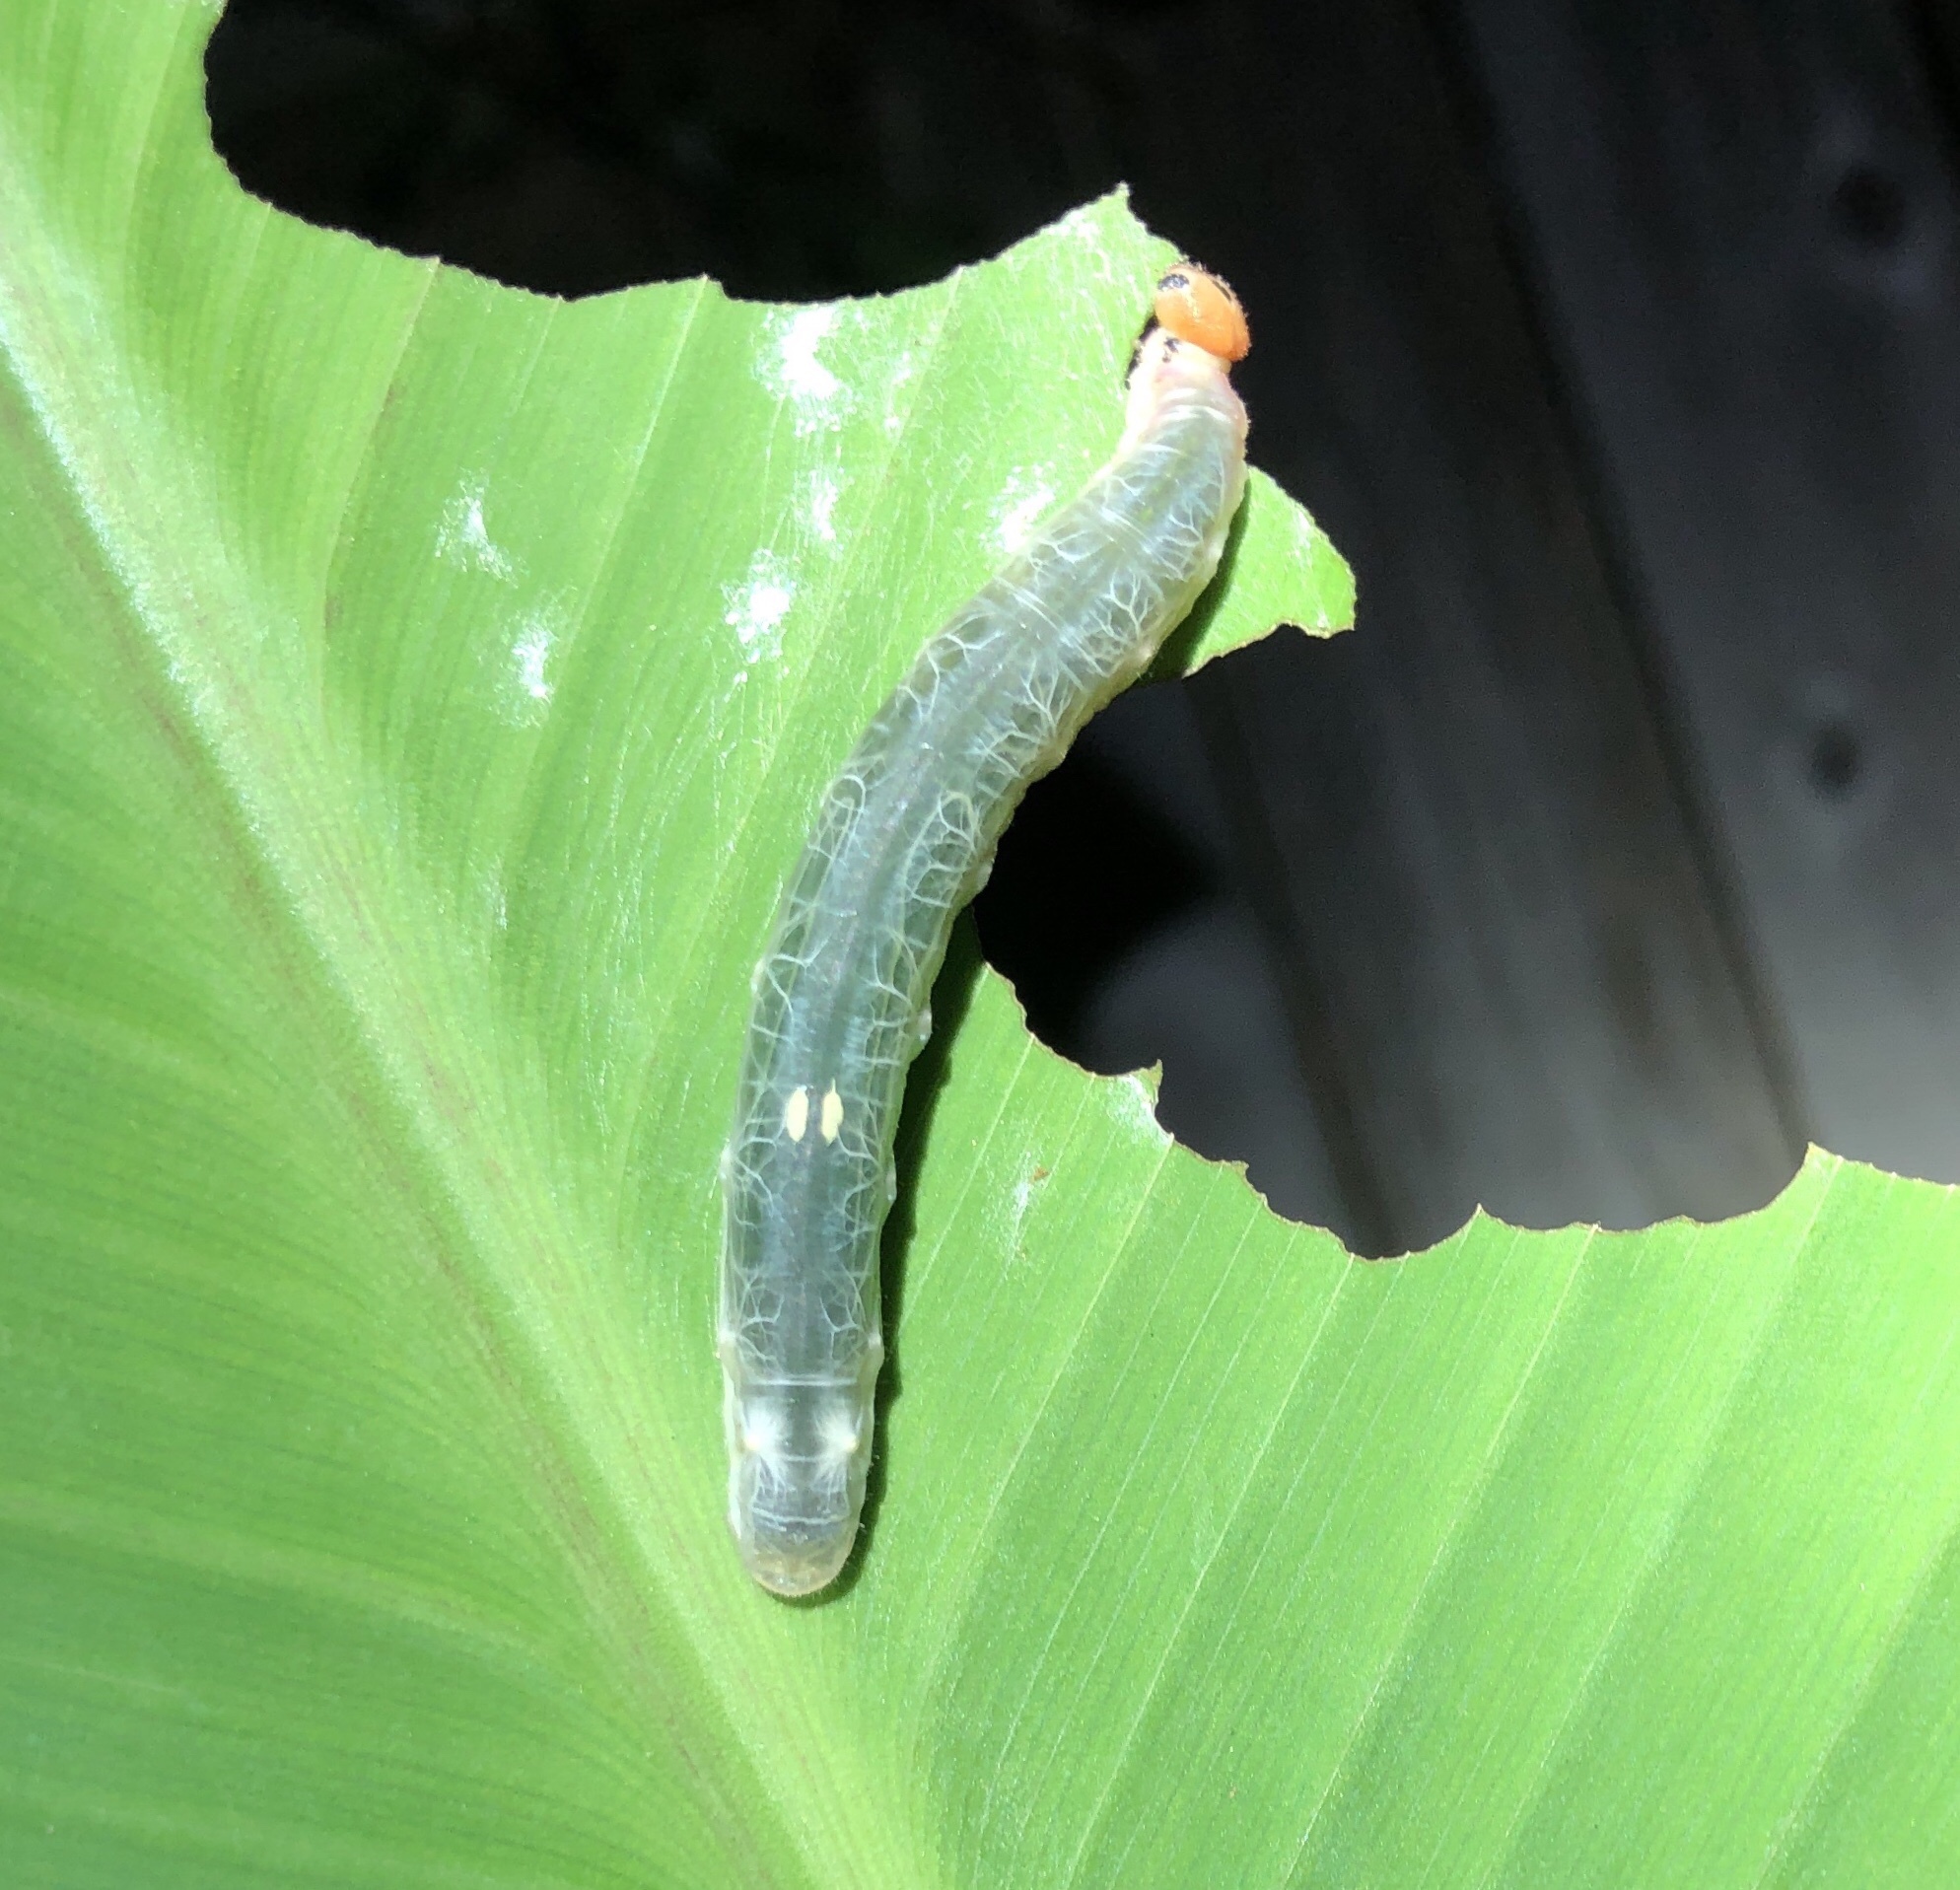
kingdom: Animalia
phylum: Arthropoda
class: Insecta
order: Lepidoptera
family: Hesperiidae
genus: Calpodes
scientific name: Calpodes ethlius
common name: Brazilian skipper
